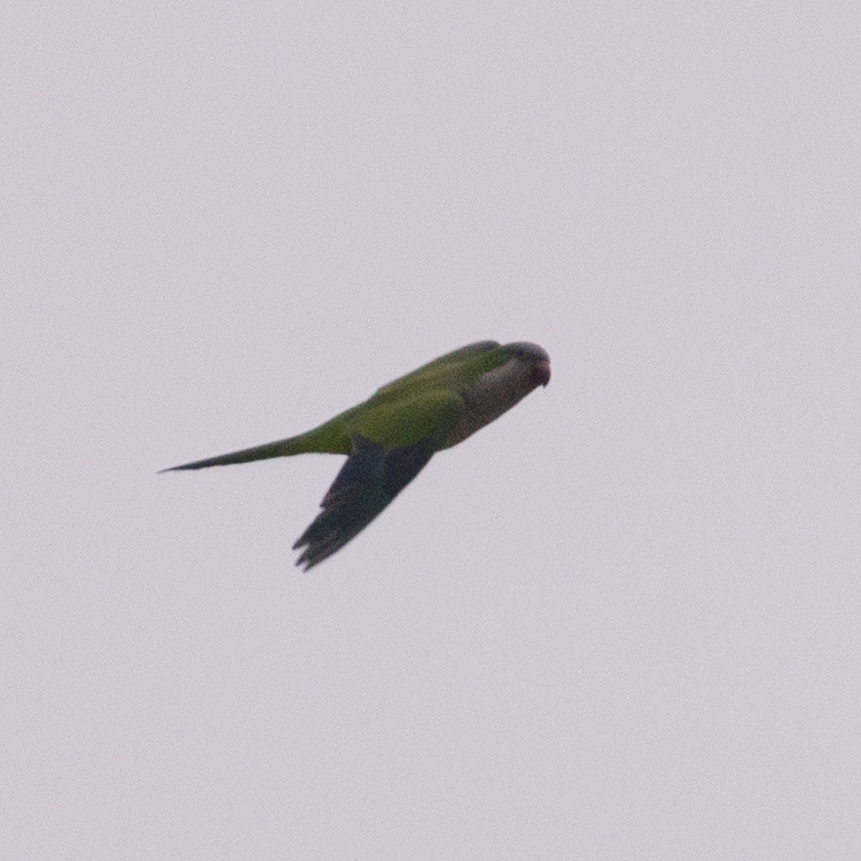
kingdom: Animalia
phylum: Chordata
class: Aves
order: Psittaciformes
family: Psittacidae
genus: Myiopsitta
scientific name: Myiopsitta monachus
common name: Monk parakeet
